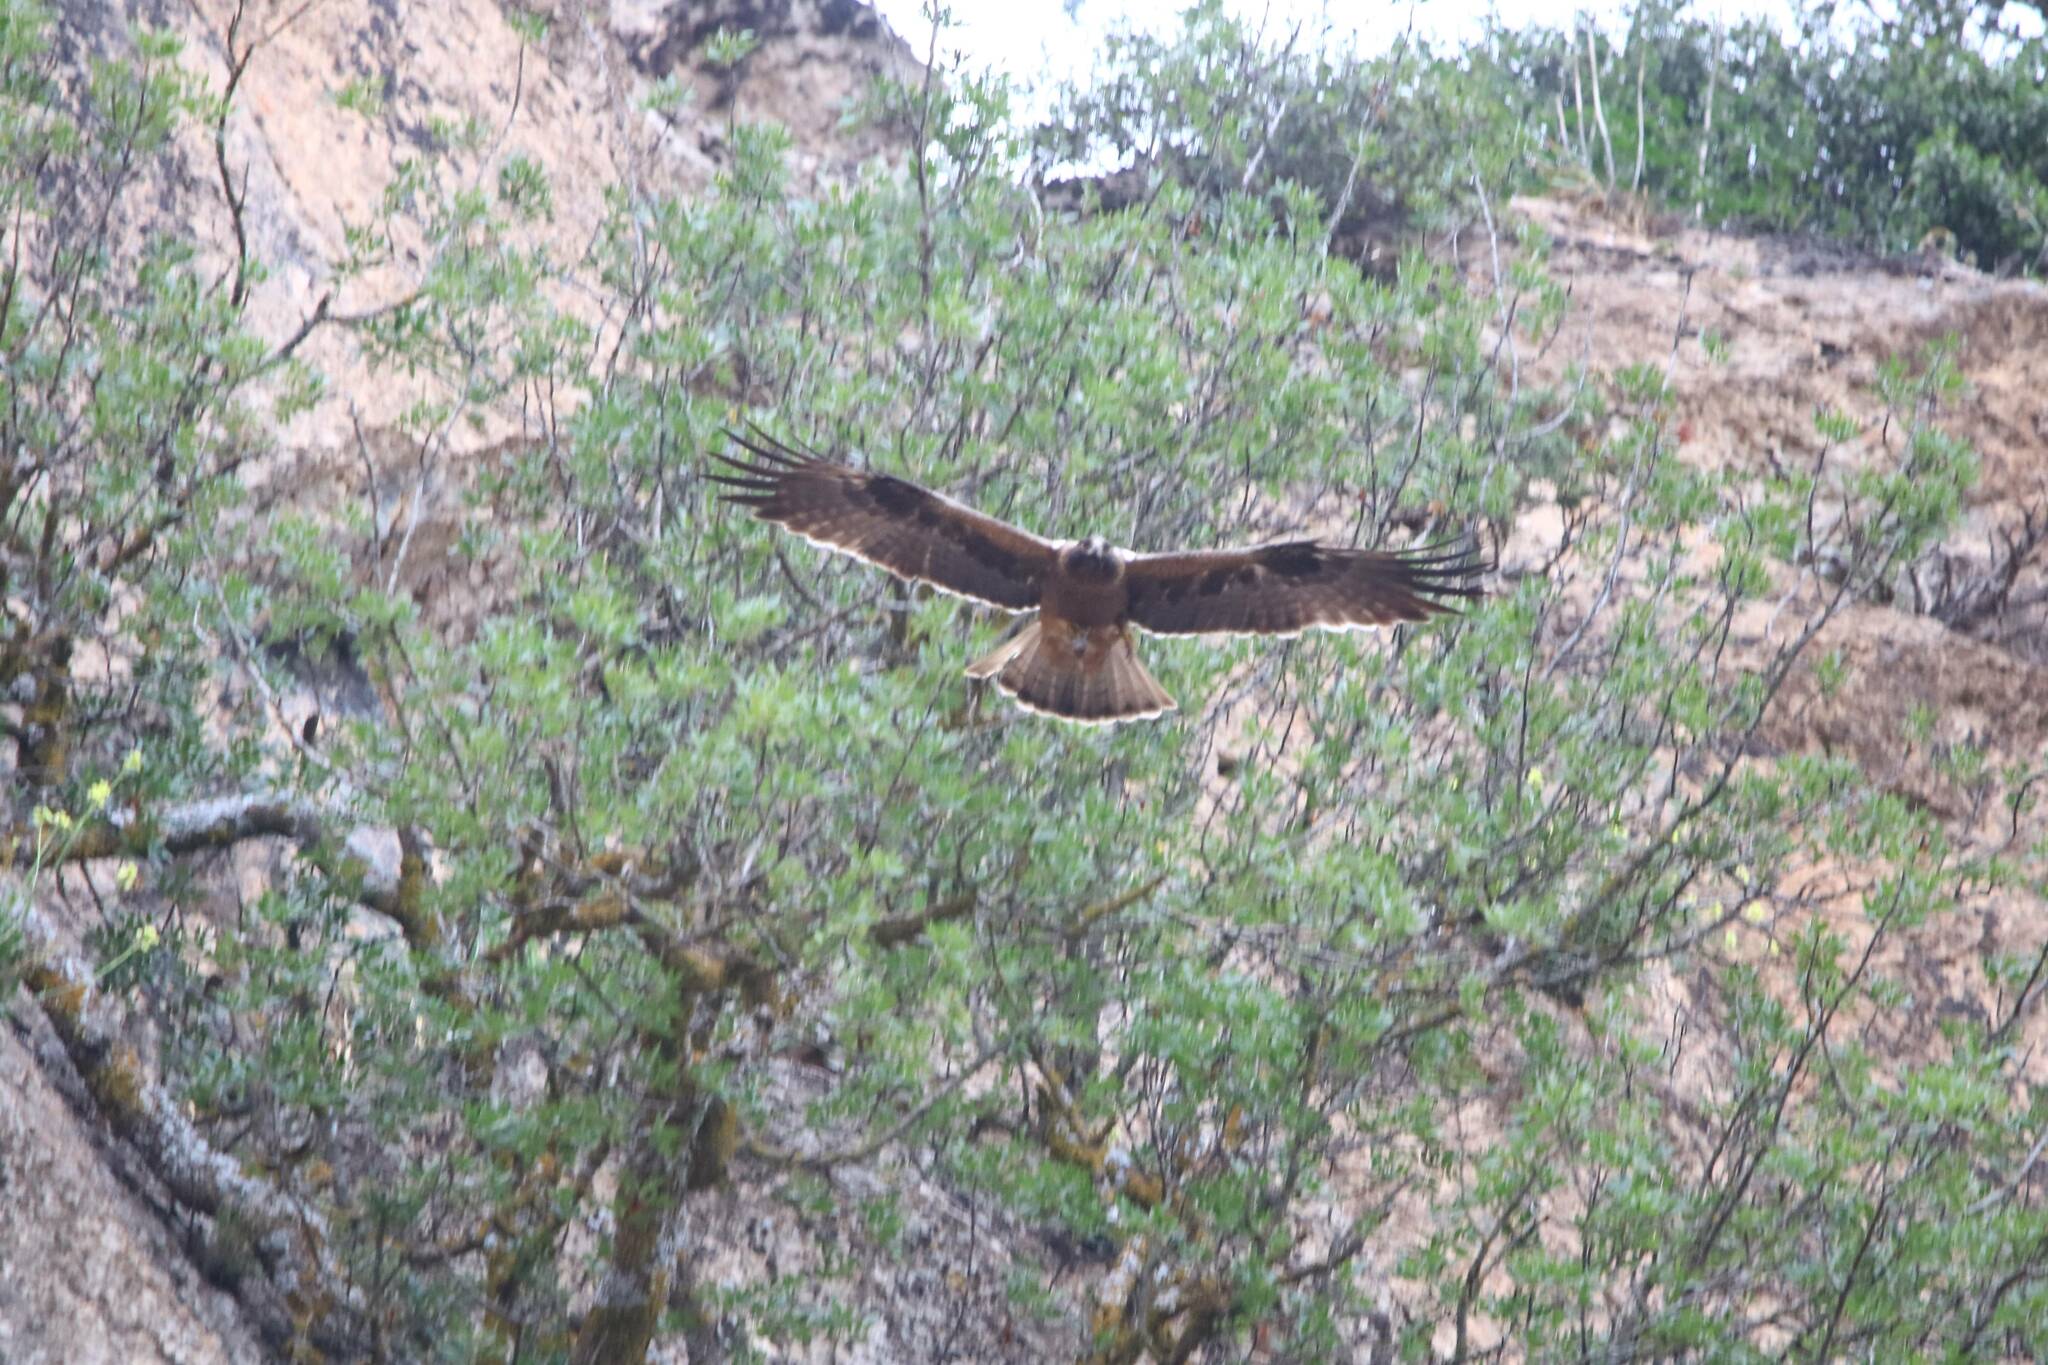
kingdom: Animalia
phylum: Chordata
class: Aves
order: Accipitriformes
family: Accipitridae
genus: Hieraaetus
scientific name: Hieraaetus pennatus
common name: Booted eagle
